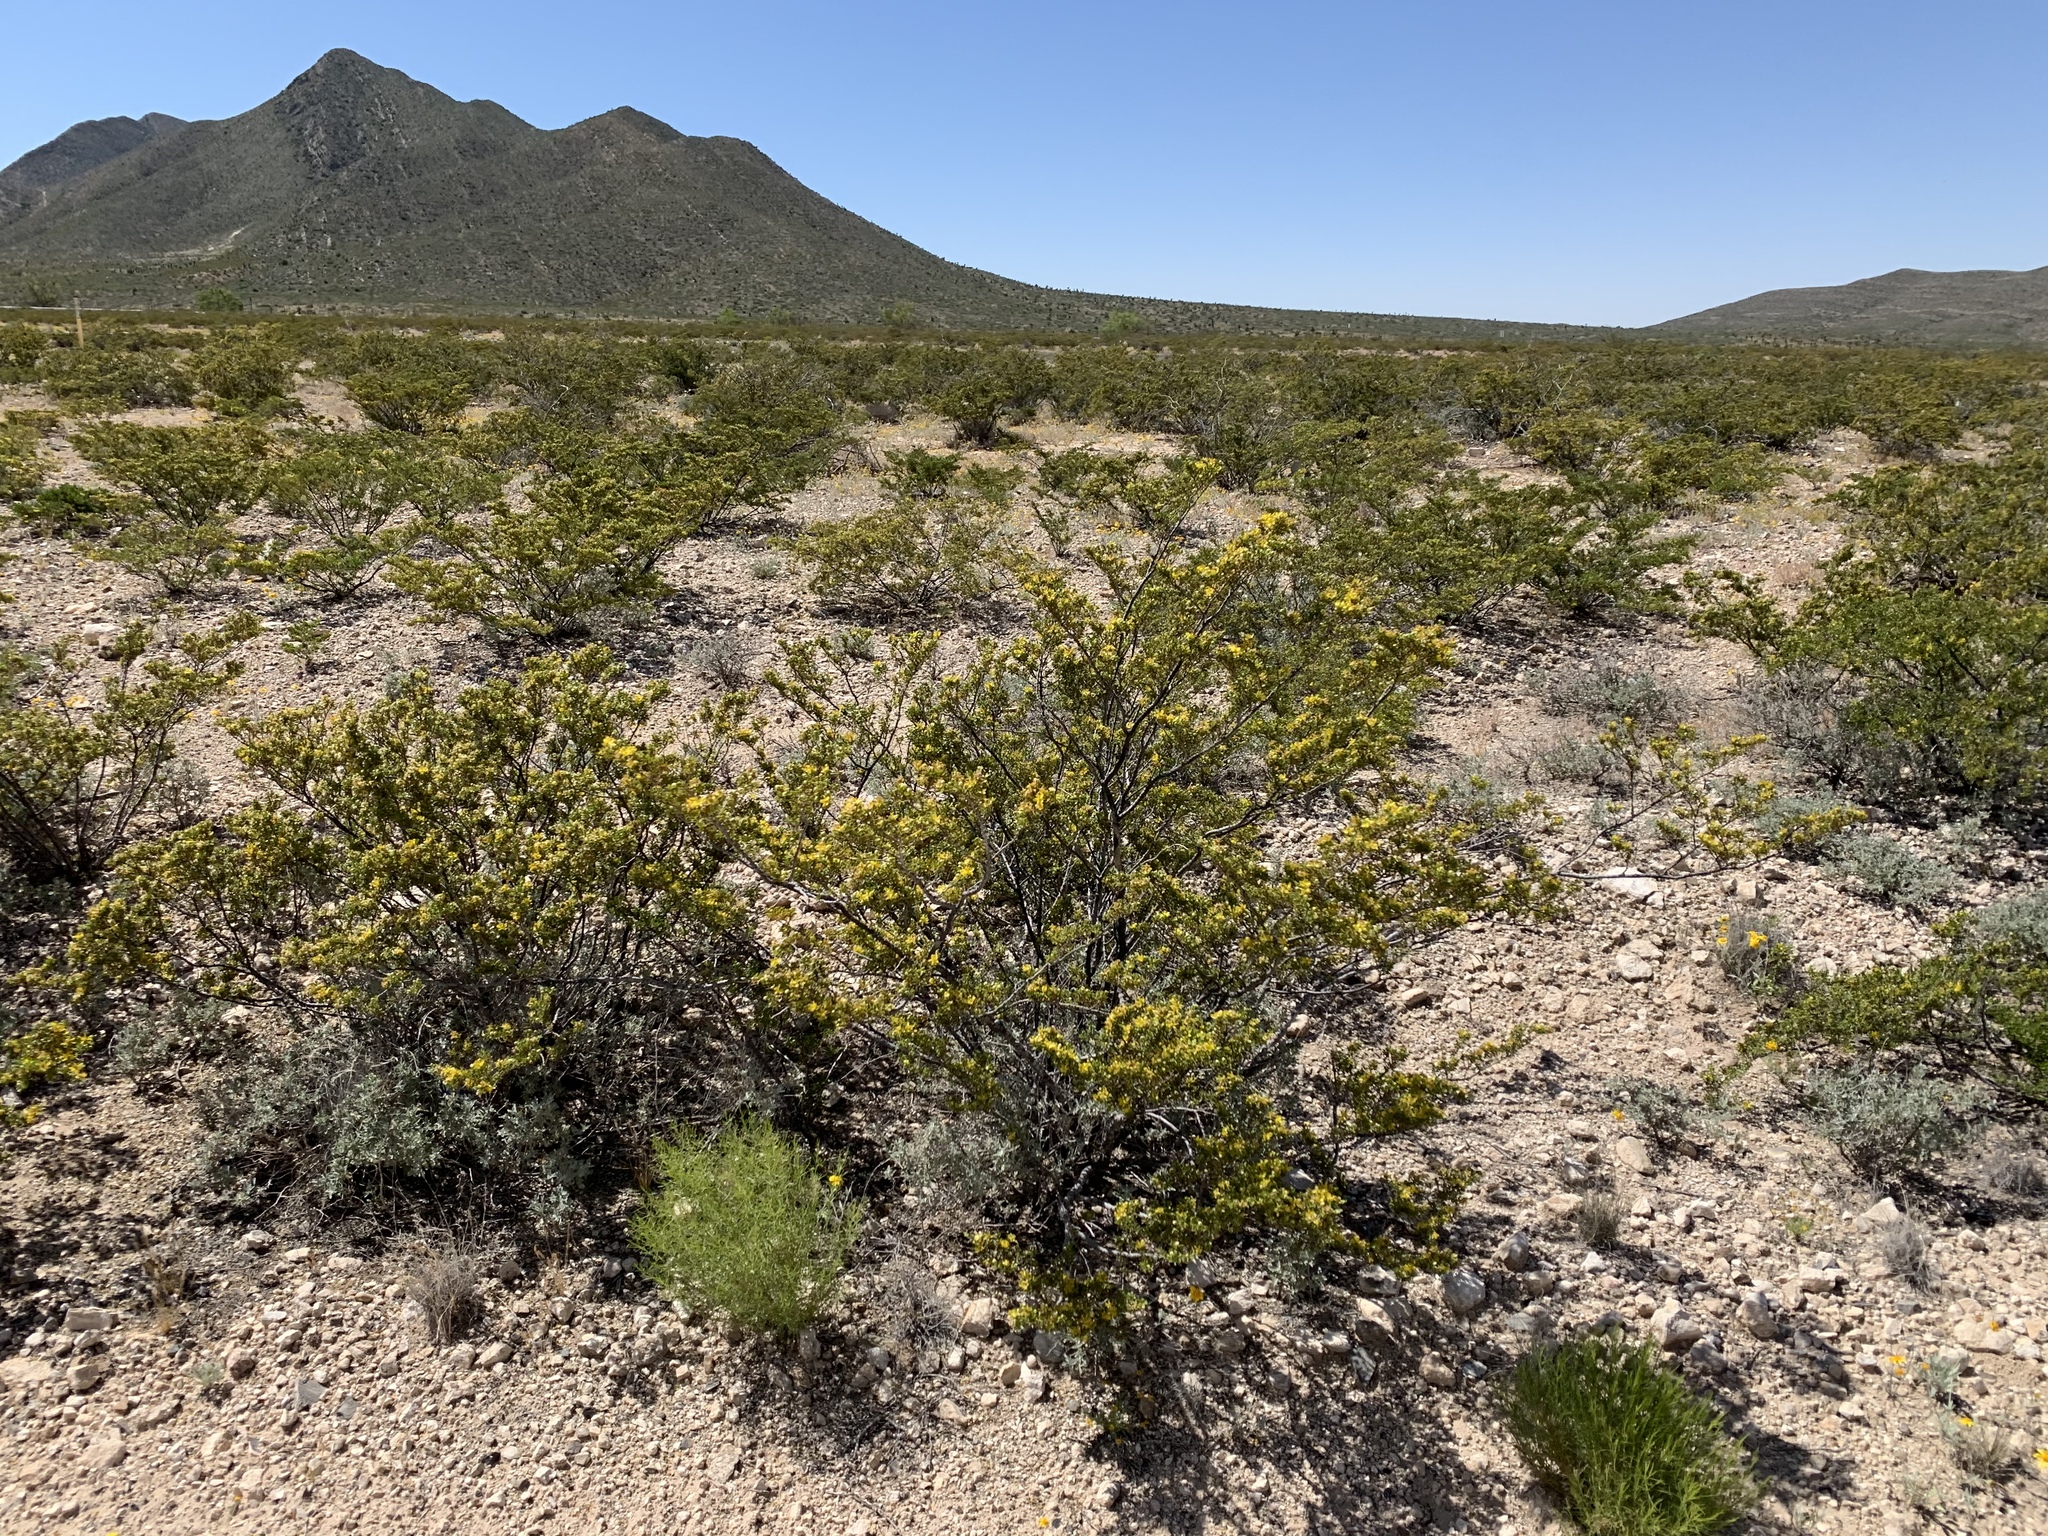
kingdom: Plantae
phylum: Tracheophyta
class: Magnoliopsida
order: Zygophyllales
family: Zygophyllaceae
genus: Larrea
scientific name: Larrea tridentata
